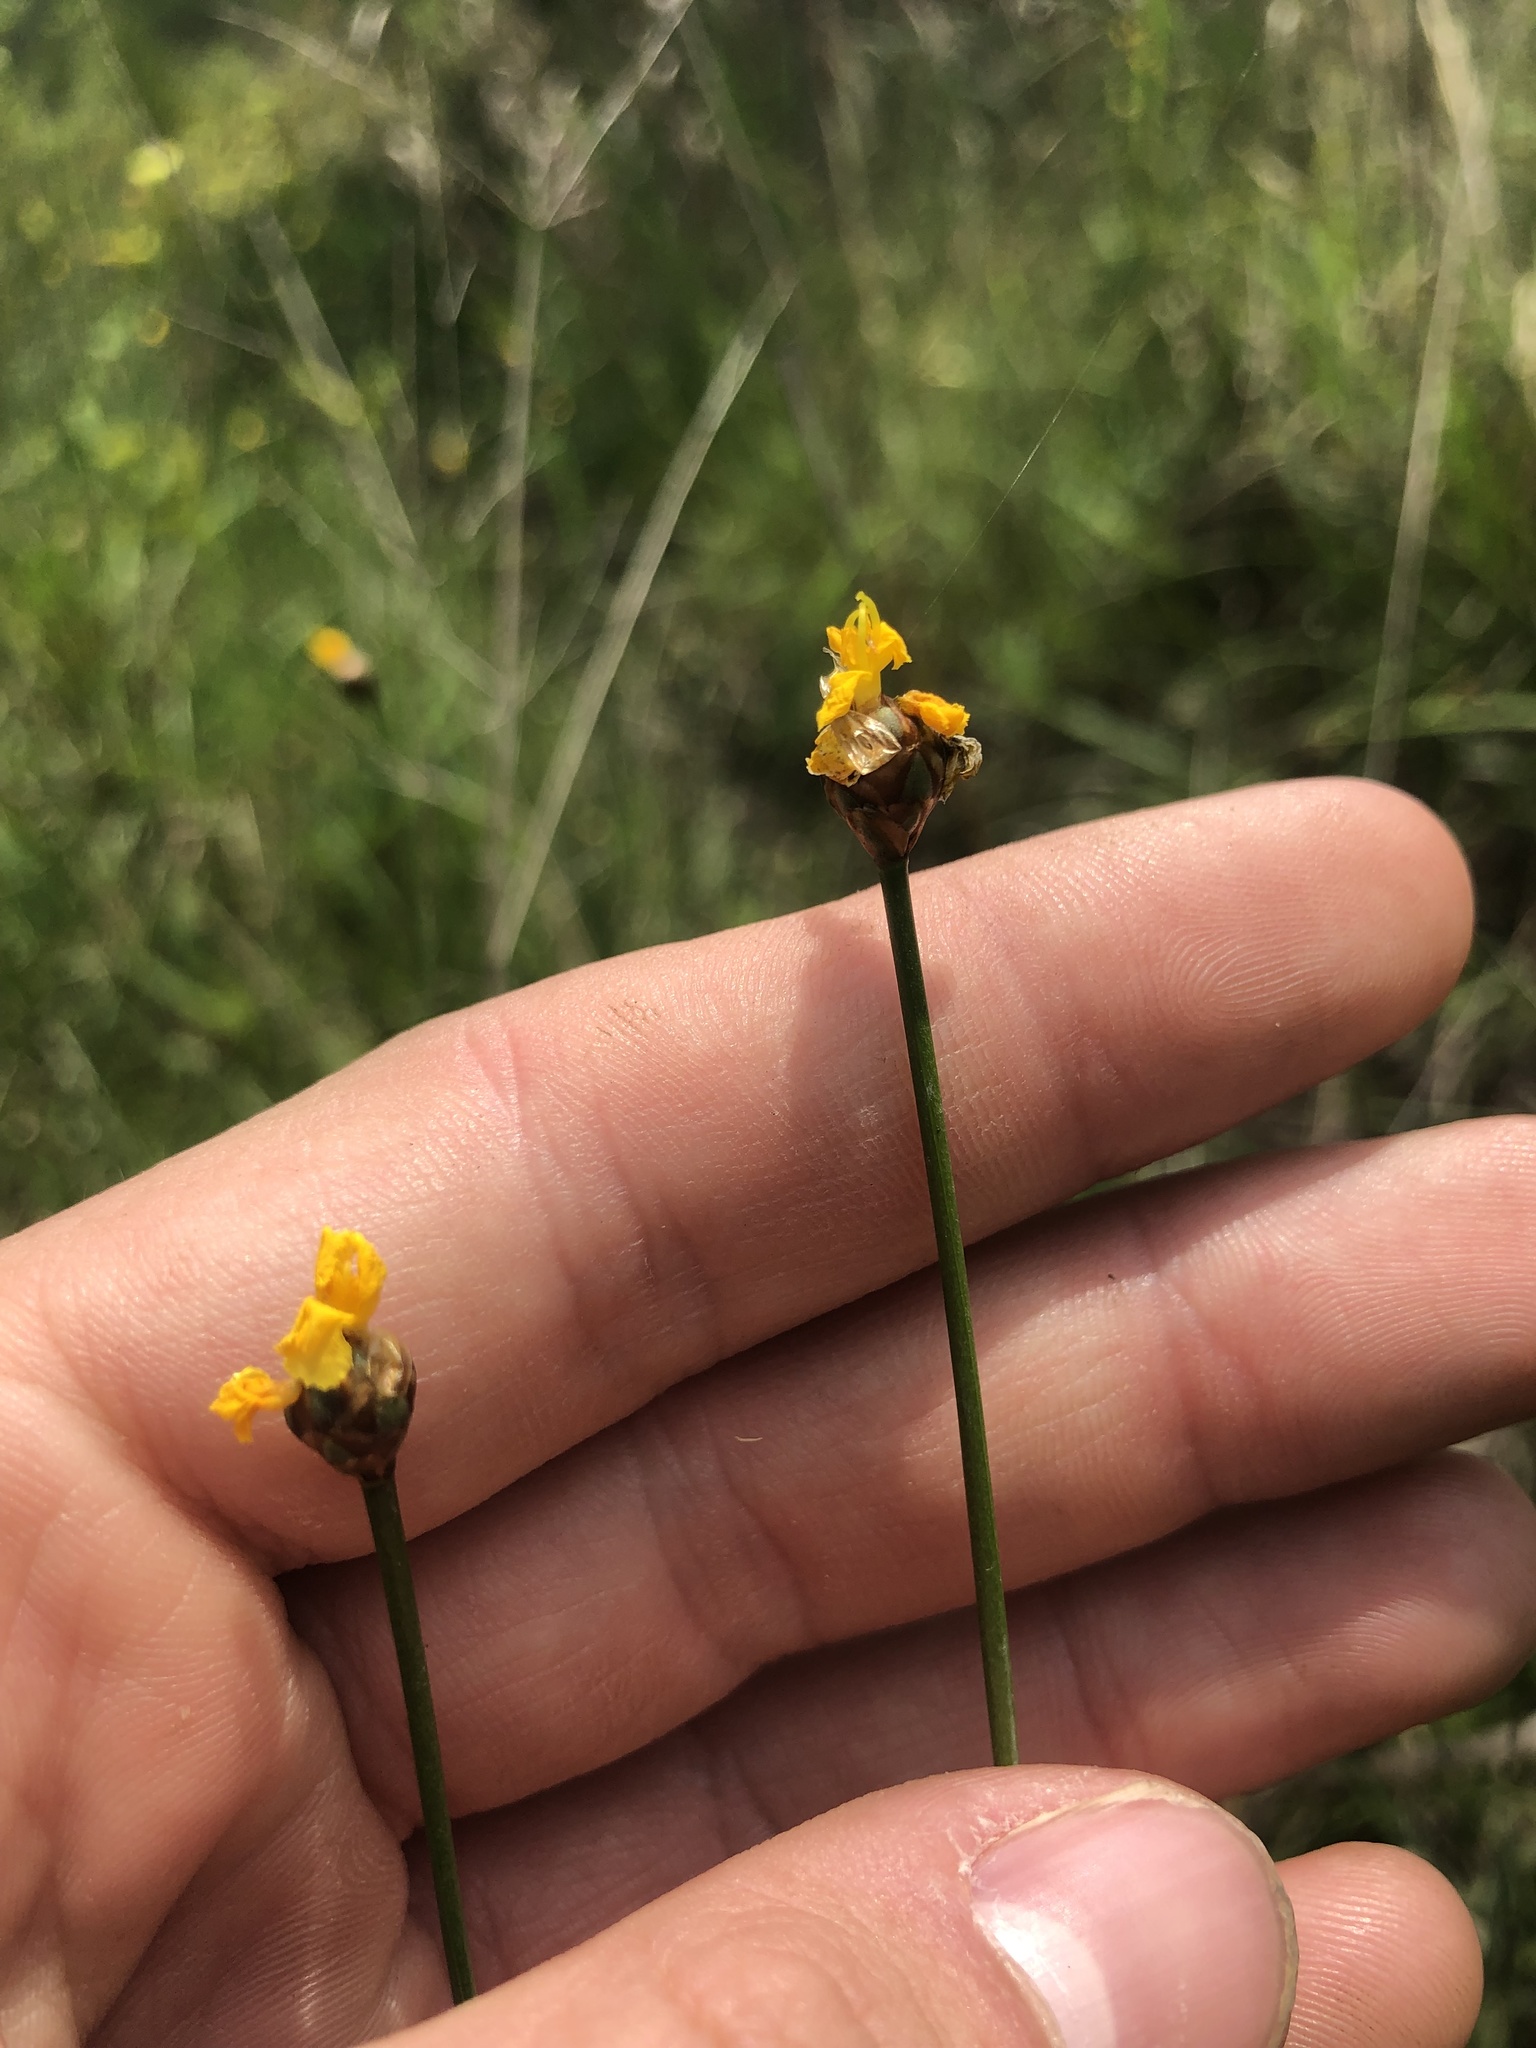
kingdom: Plantae
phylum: Tracheophyta
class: Liliopsida
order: Poales
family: Xyridaceae
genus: Xyris
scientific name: Xyris jupicai
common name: Richard's yelloweyed grass
